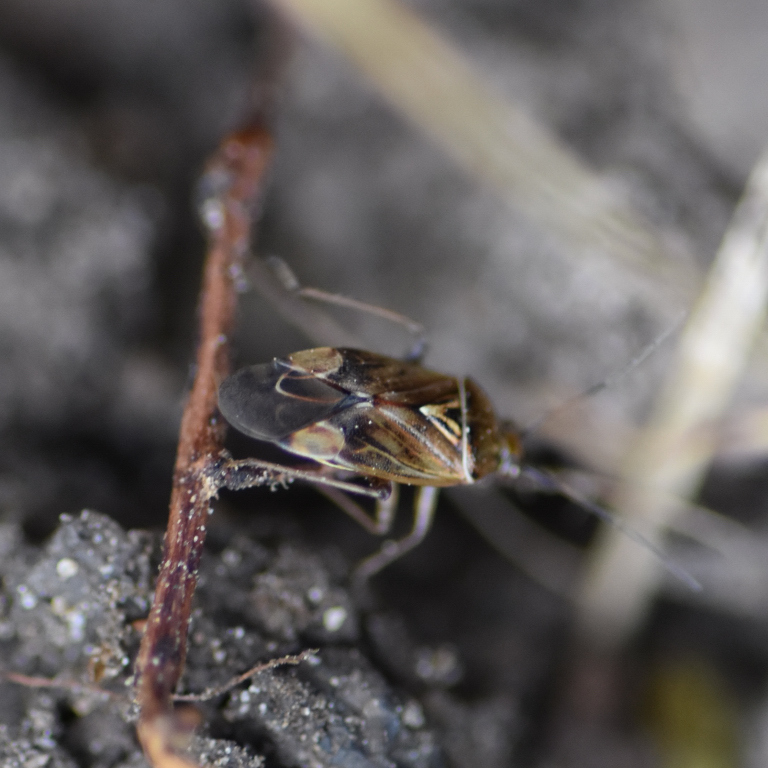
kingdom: Animalia
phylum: Arthropoda
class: Insecta
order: Hemiptera
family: Miridae
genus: Lygus
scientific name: Lygus lineolaris
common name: North american tarnished plant bug
